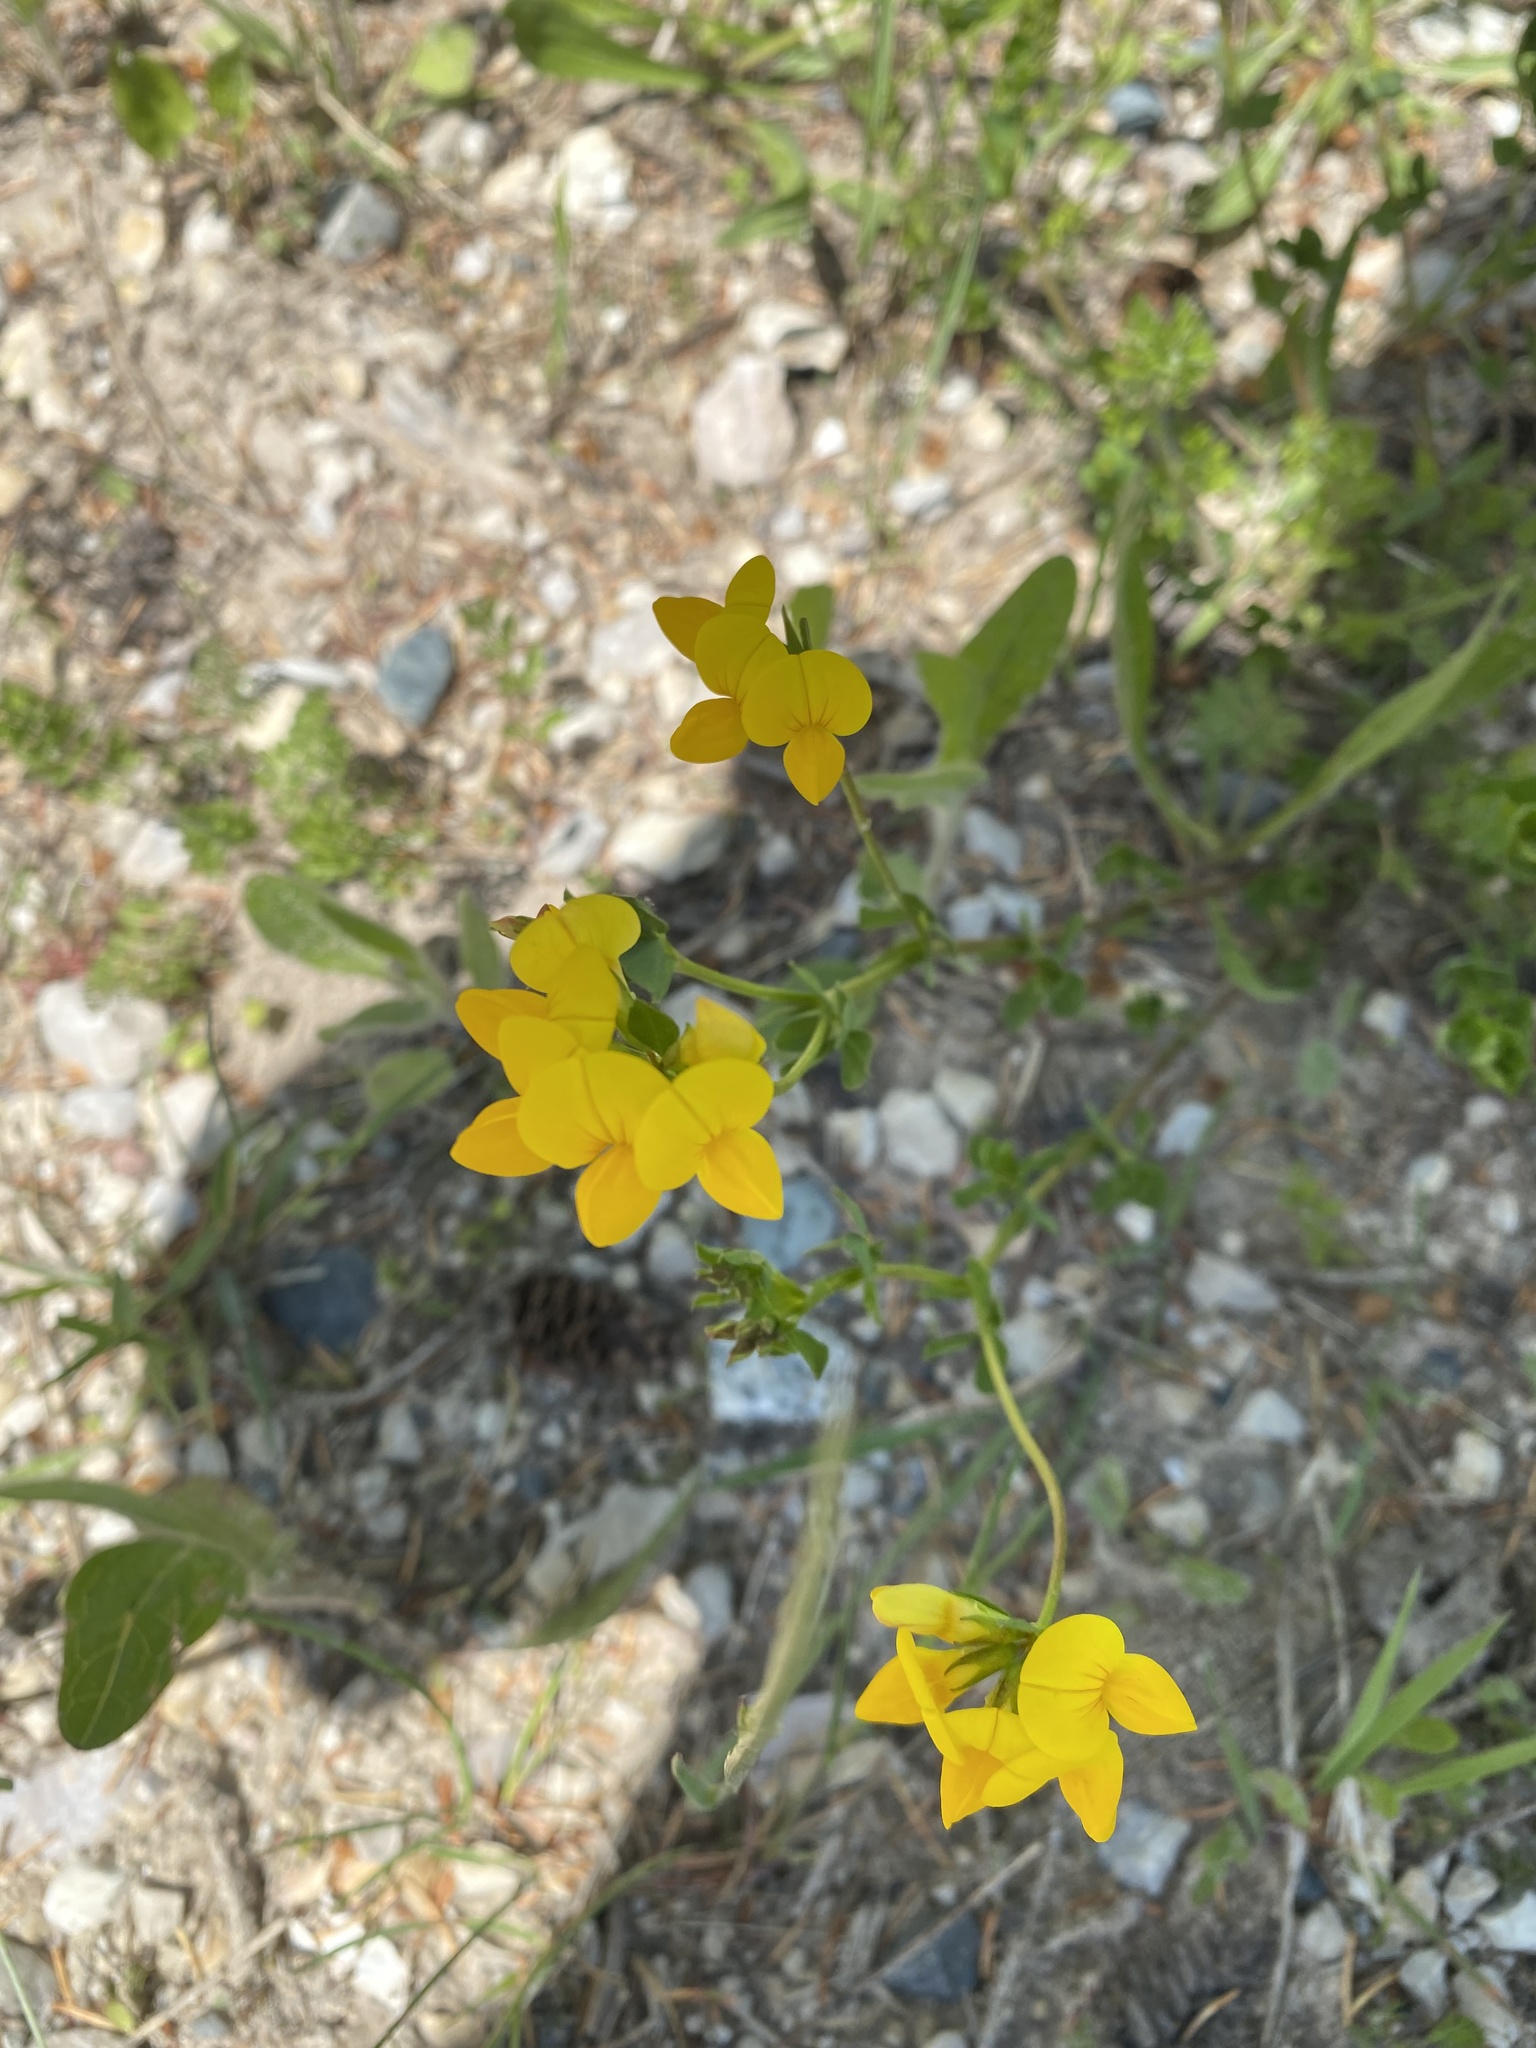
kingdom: Plantae
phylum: Tracheophyta
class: Magnoliopsida
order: Fabales
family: Fabaceae
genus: Lotus
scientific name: Lotus corniculatus
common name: Common bird's-foot-trefoil
